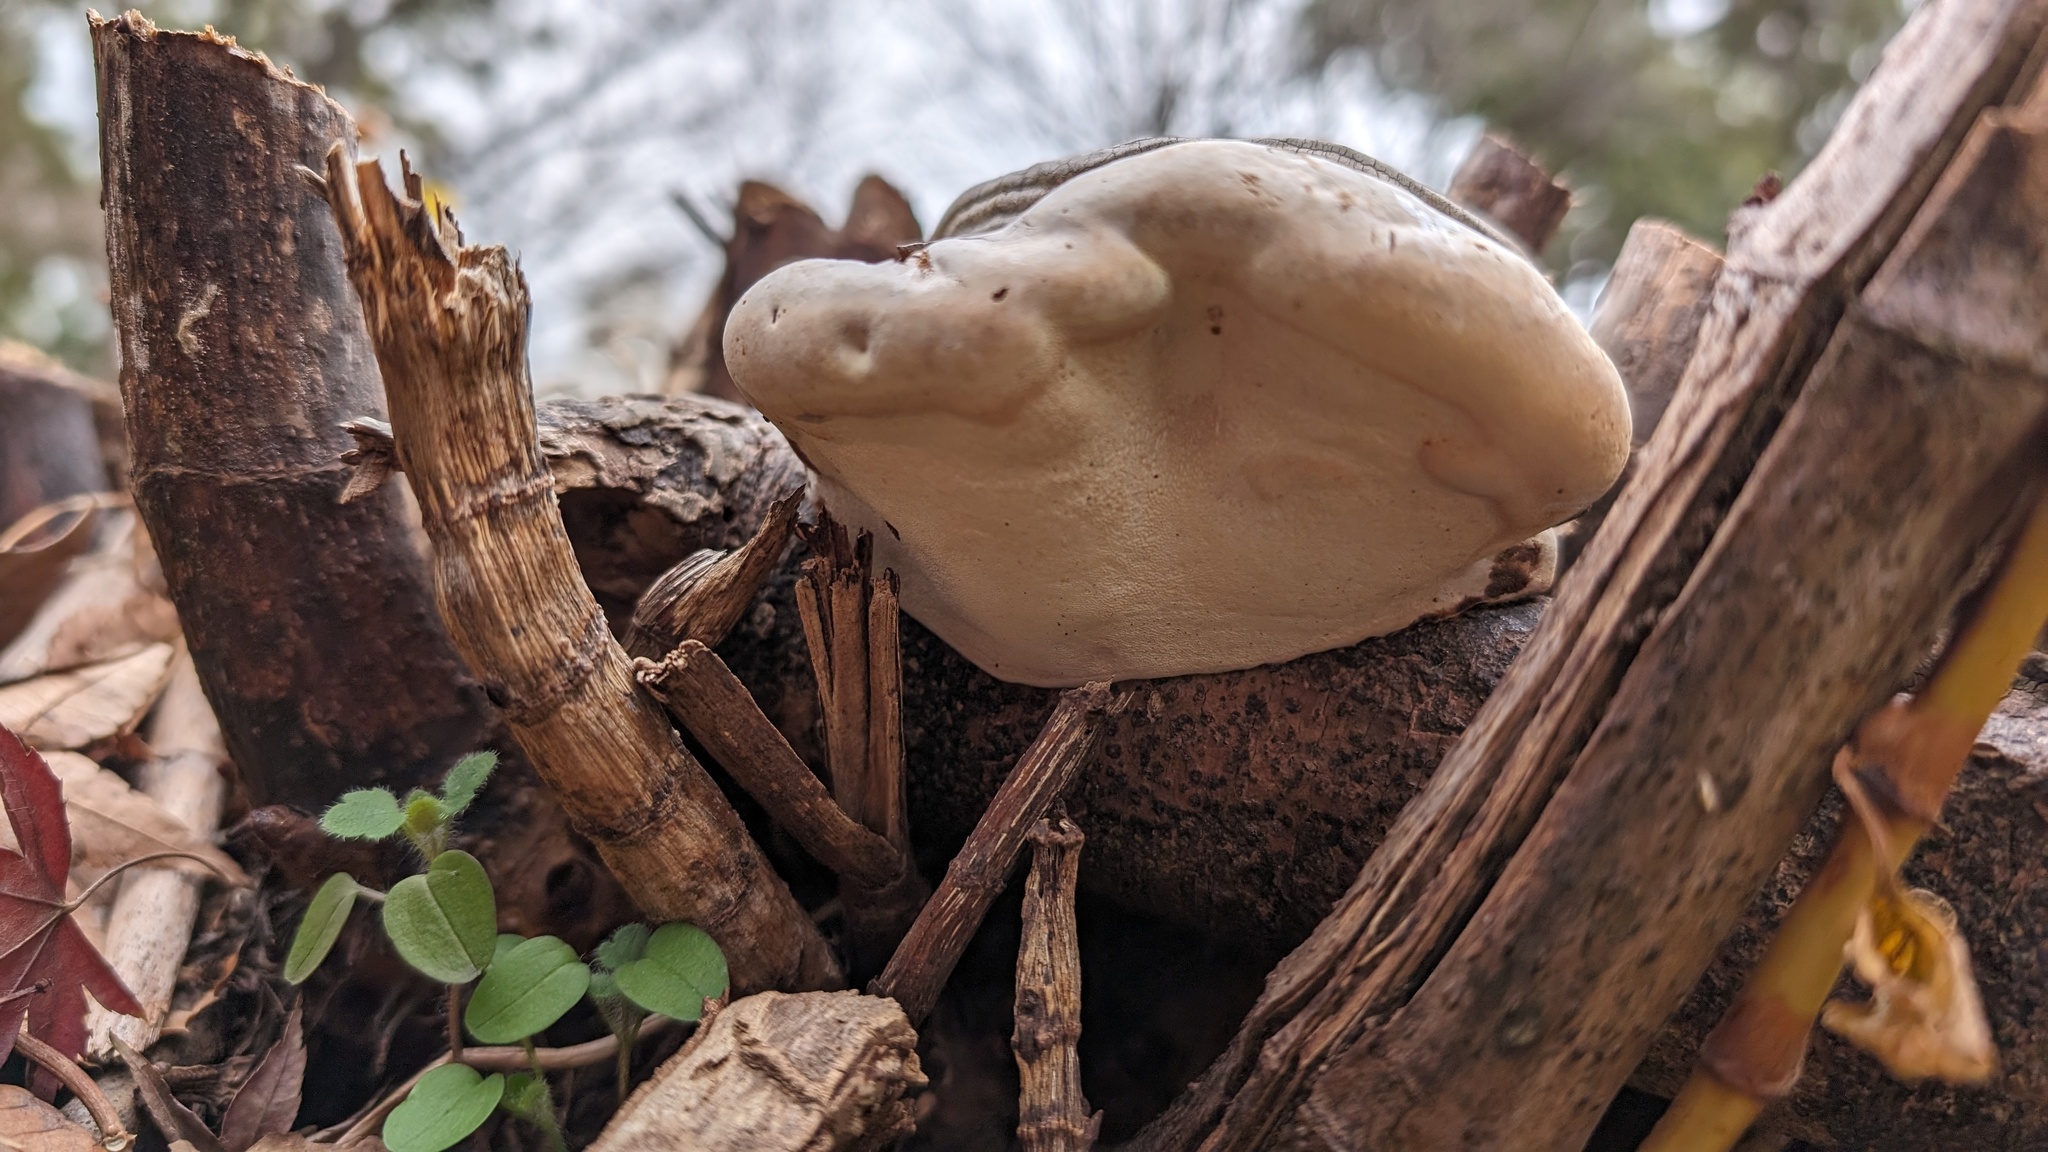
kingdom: Fungi
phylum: Basidiomycota
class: Agaricomycetes
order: Polyporales
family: Polyporaceae
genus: Ganoderma
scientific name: Ganoderma applanatum
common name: Artist's bracket
